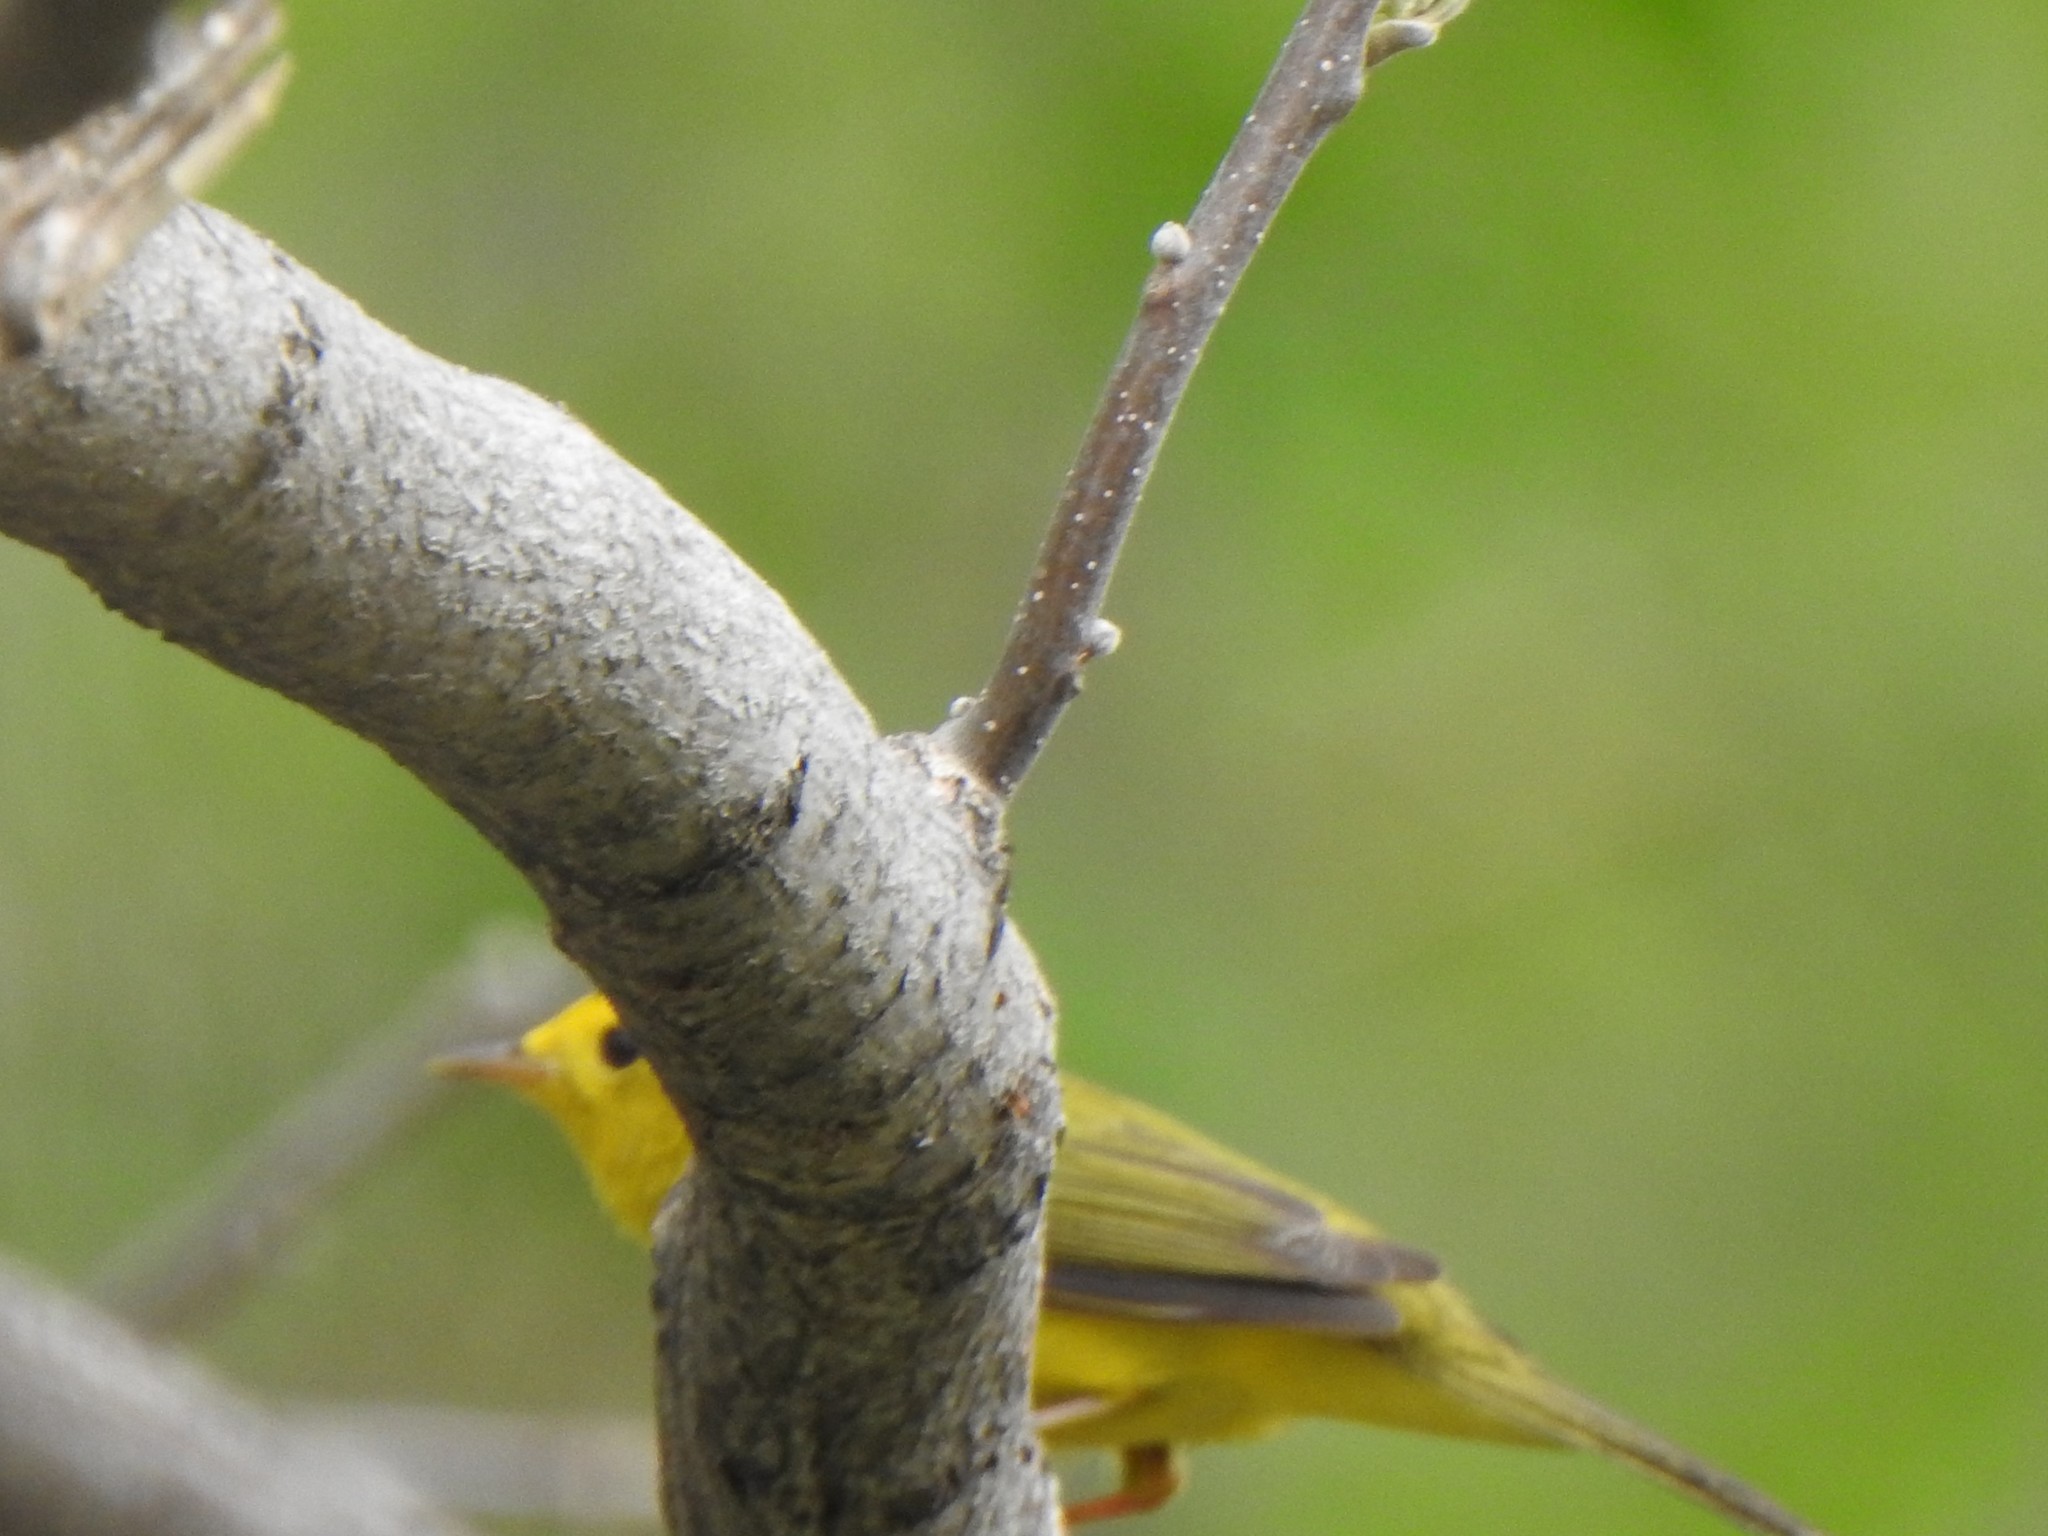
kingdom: Animalia
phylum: Chordata
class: Aves
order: Passeriformes
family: Parulidae
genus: Cardellina
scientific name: Cardellina pusilla
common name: Wilson's warbler
